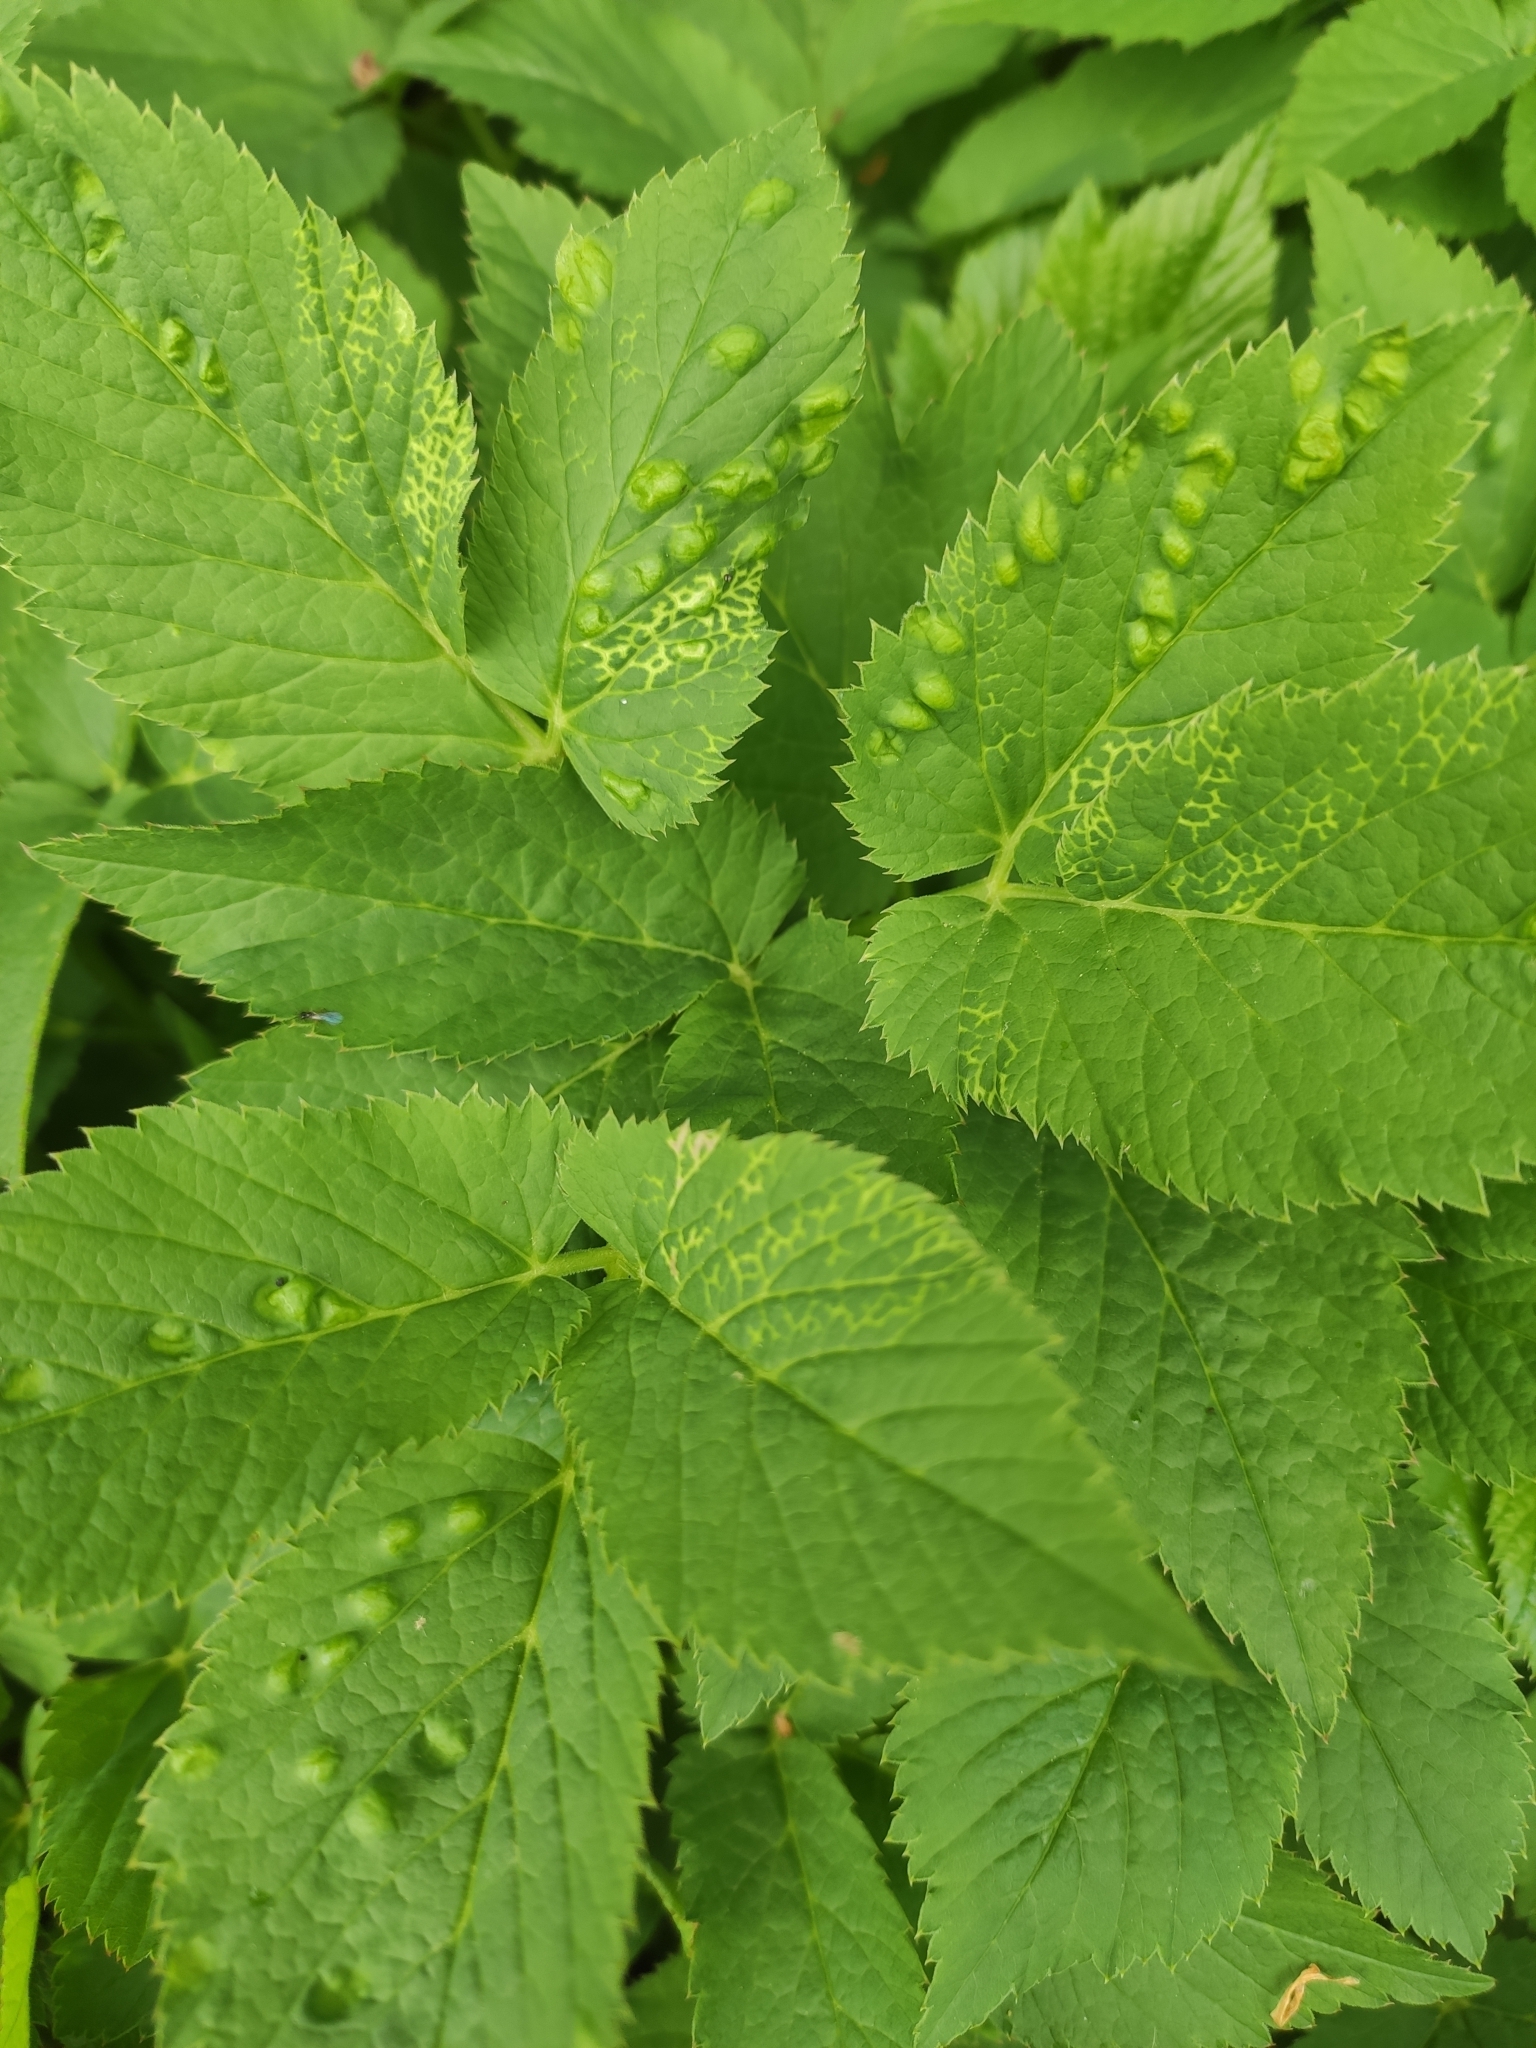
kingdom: Animalia
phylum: Arthropoda
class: Insecta
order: Hemiptera
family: Triozidae
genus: Trioza
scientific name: Trioza flavipennis
